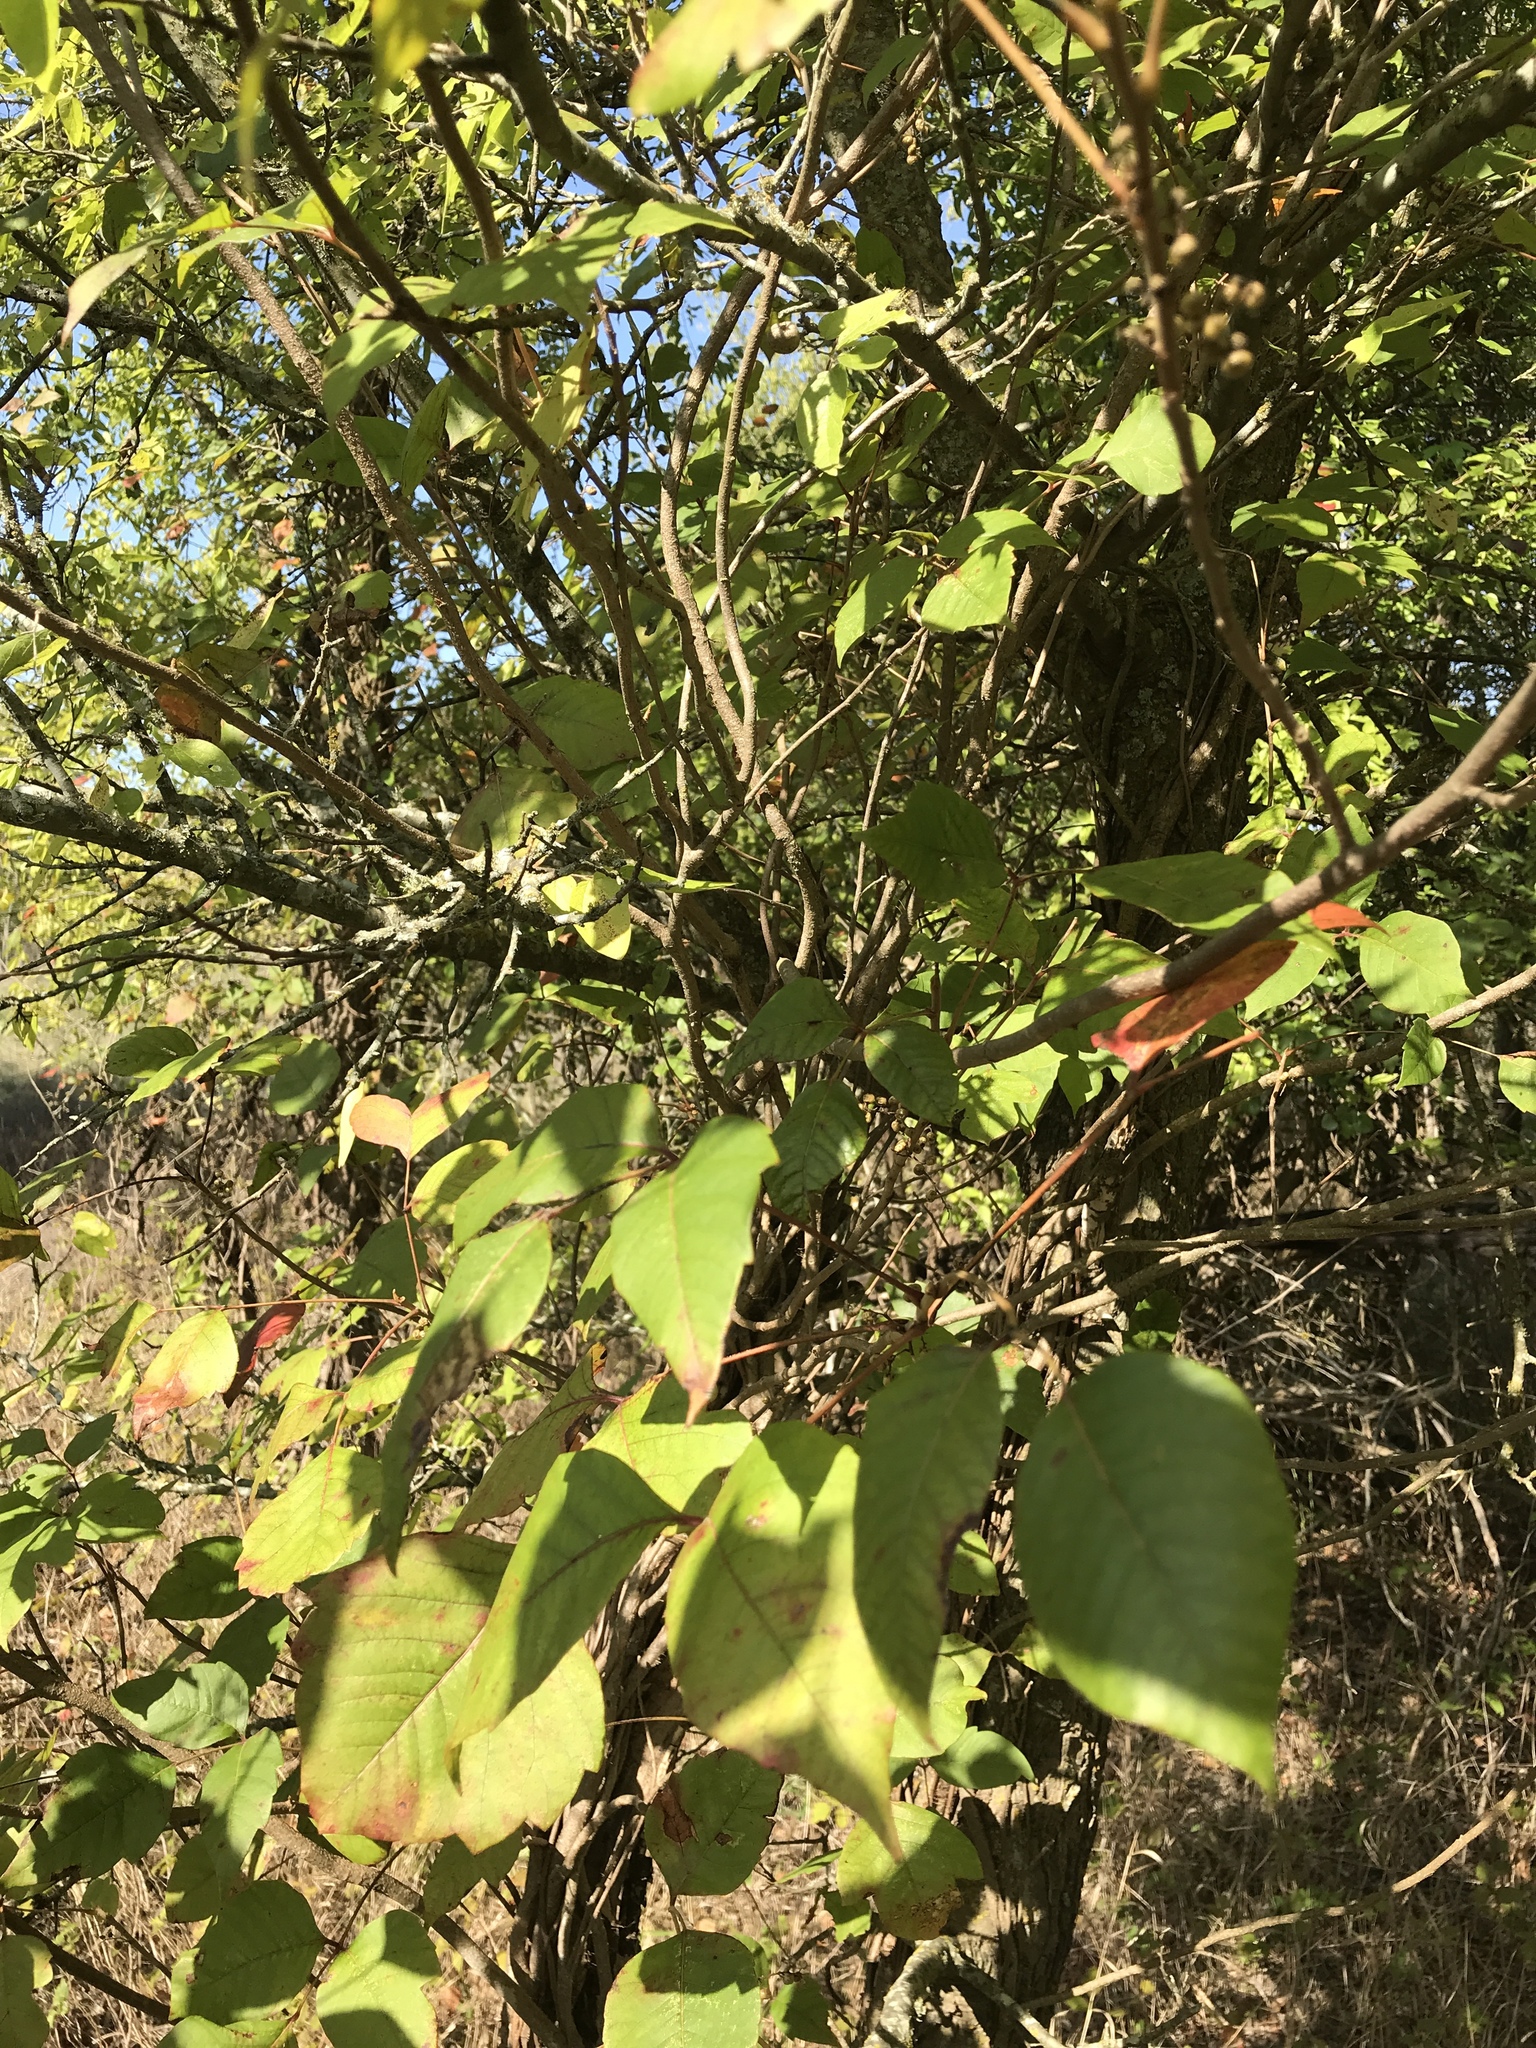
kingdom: Plantae
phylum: Tracheophyta
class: Magnoliopsida
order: Sapindales
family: Anacardiaceae
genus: Toxicodendron
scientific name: Toxicodendron radicans
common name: Poison ivy
